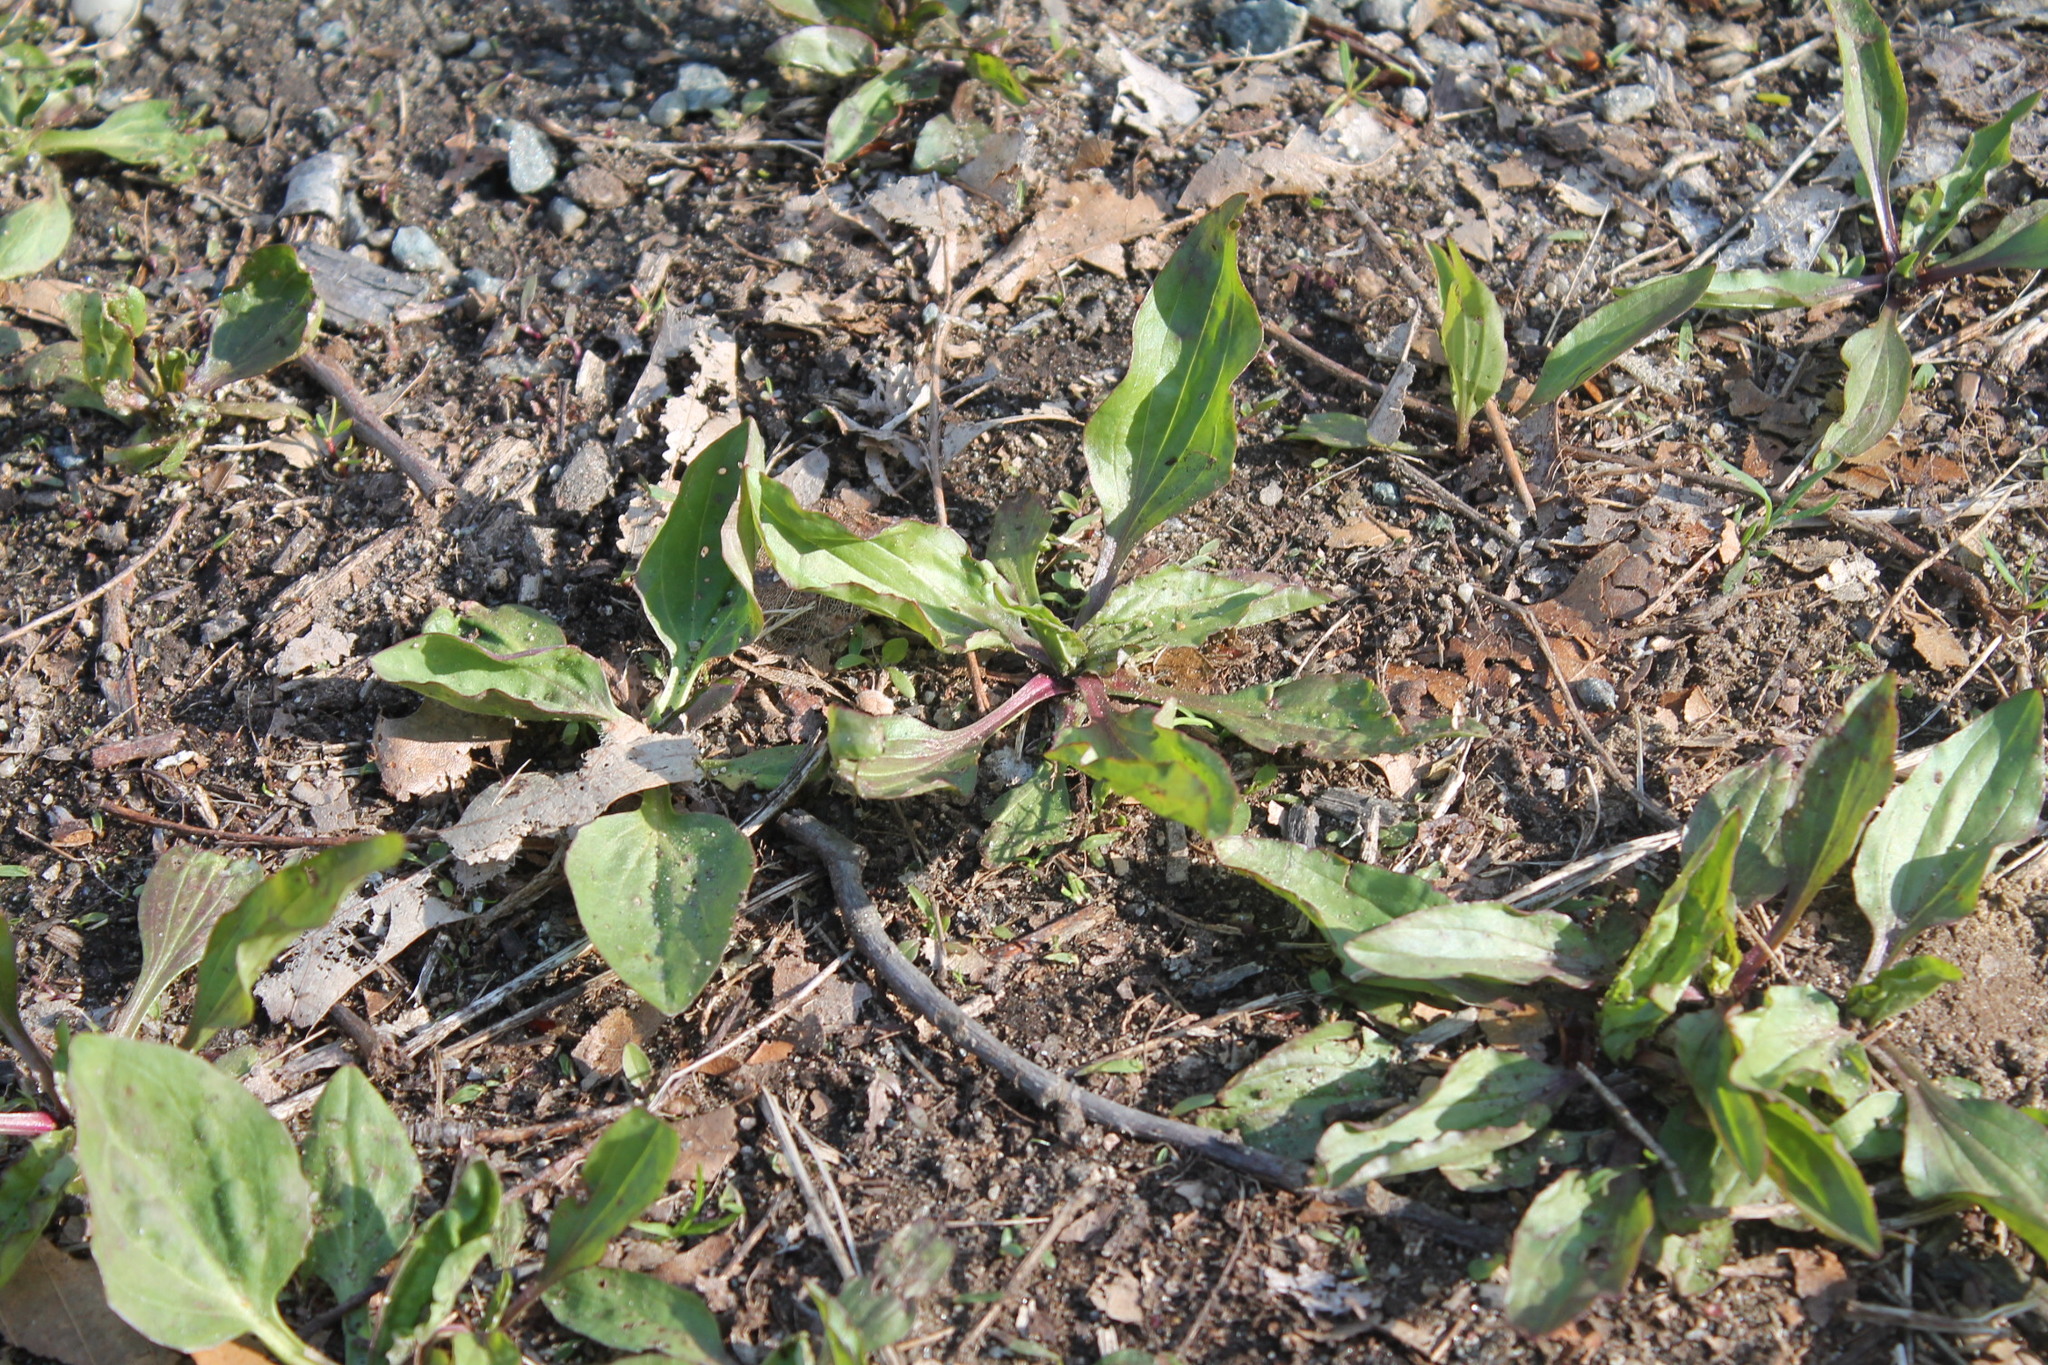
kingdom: Plantae
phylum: Tracheophyta
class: Magnoliopsida
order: Lamiales
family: Plantaginaceae
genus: Plantago
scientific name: Plantago rugelii
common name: American plantain
